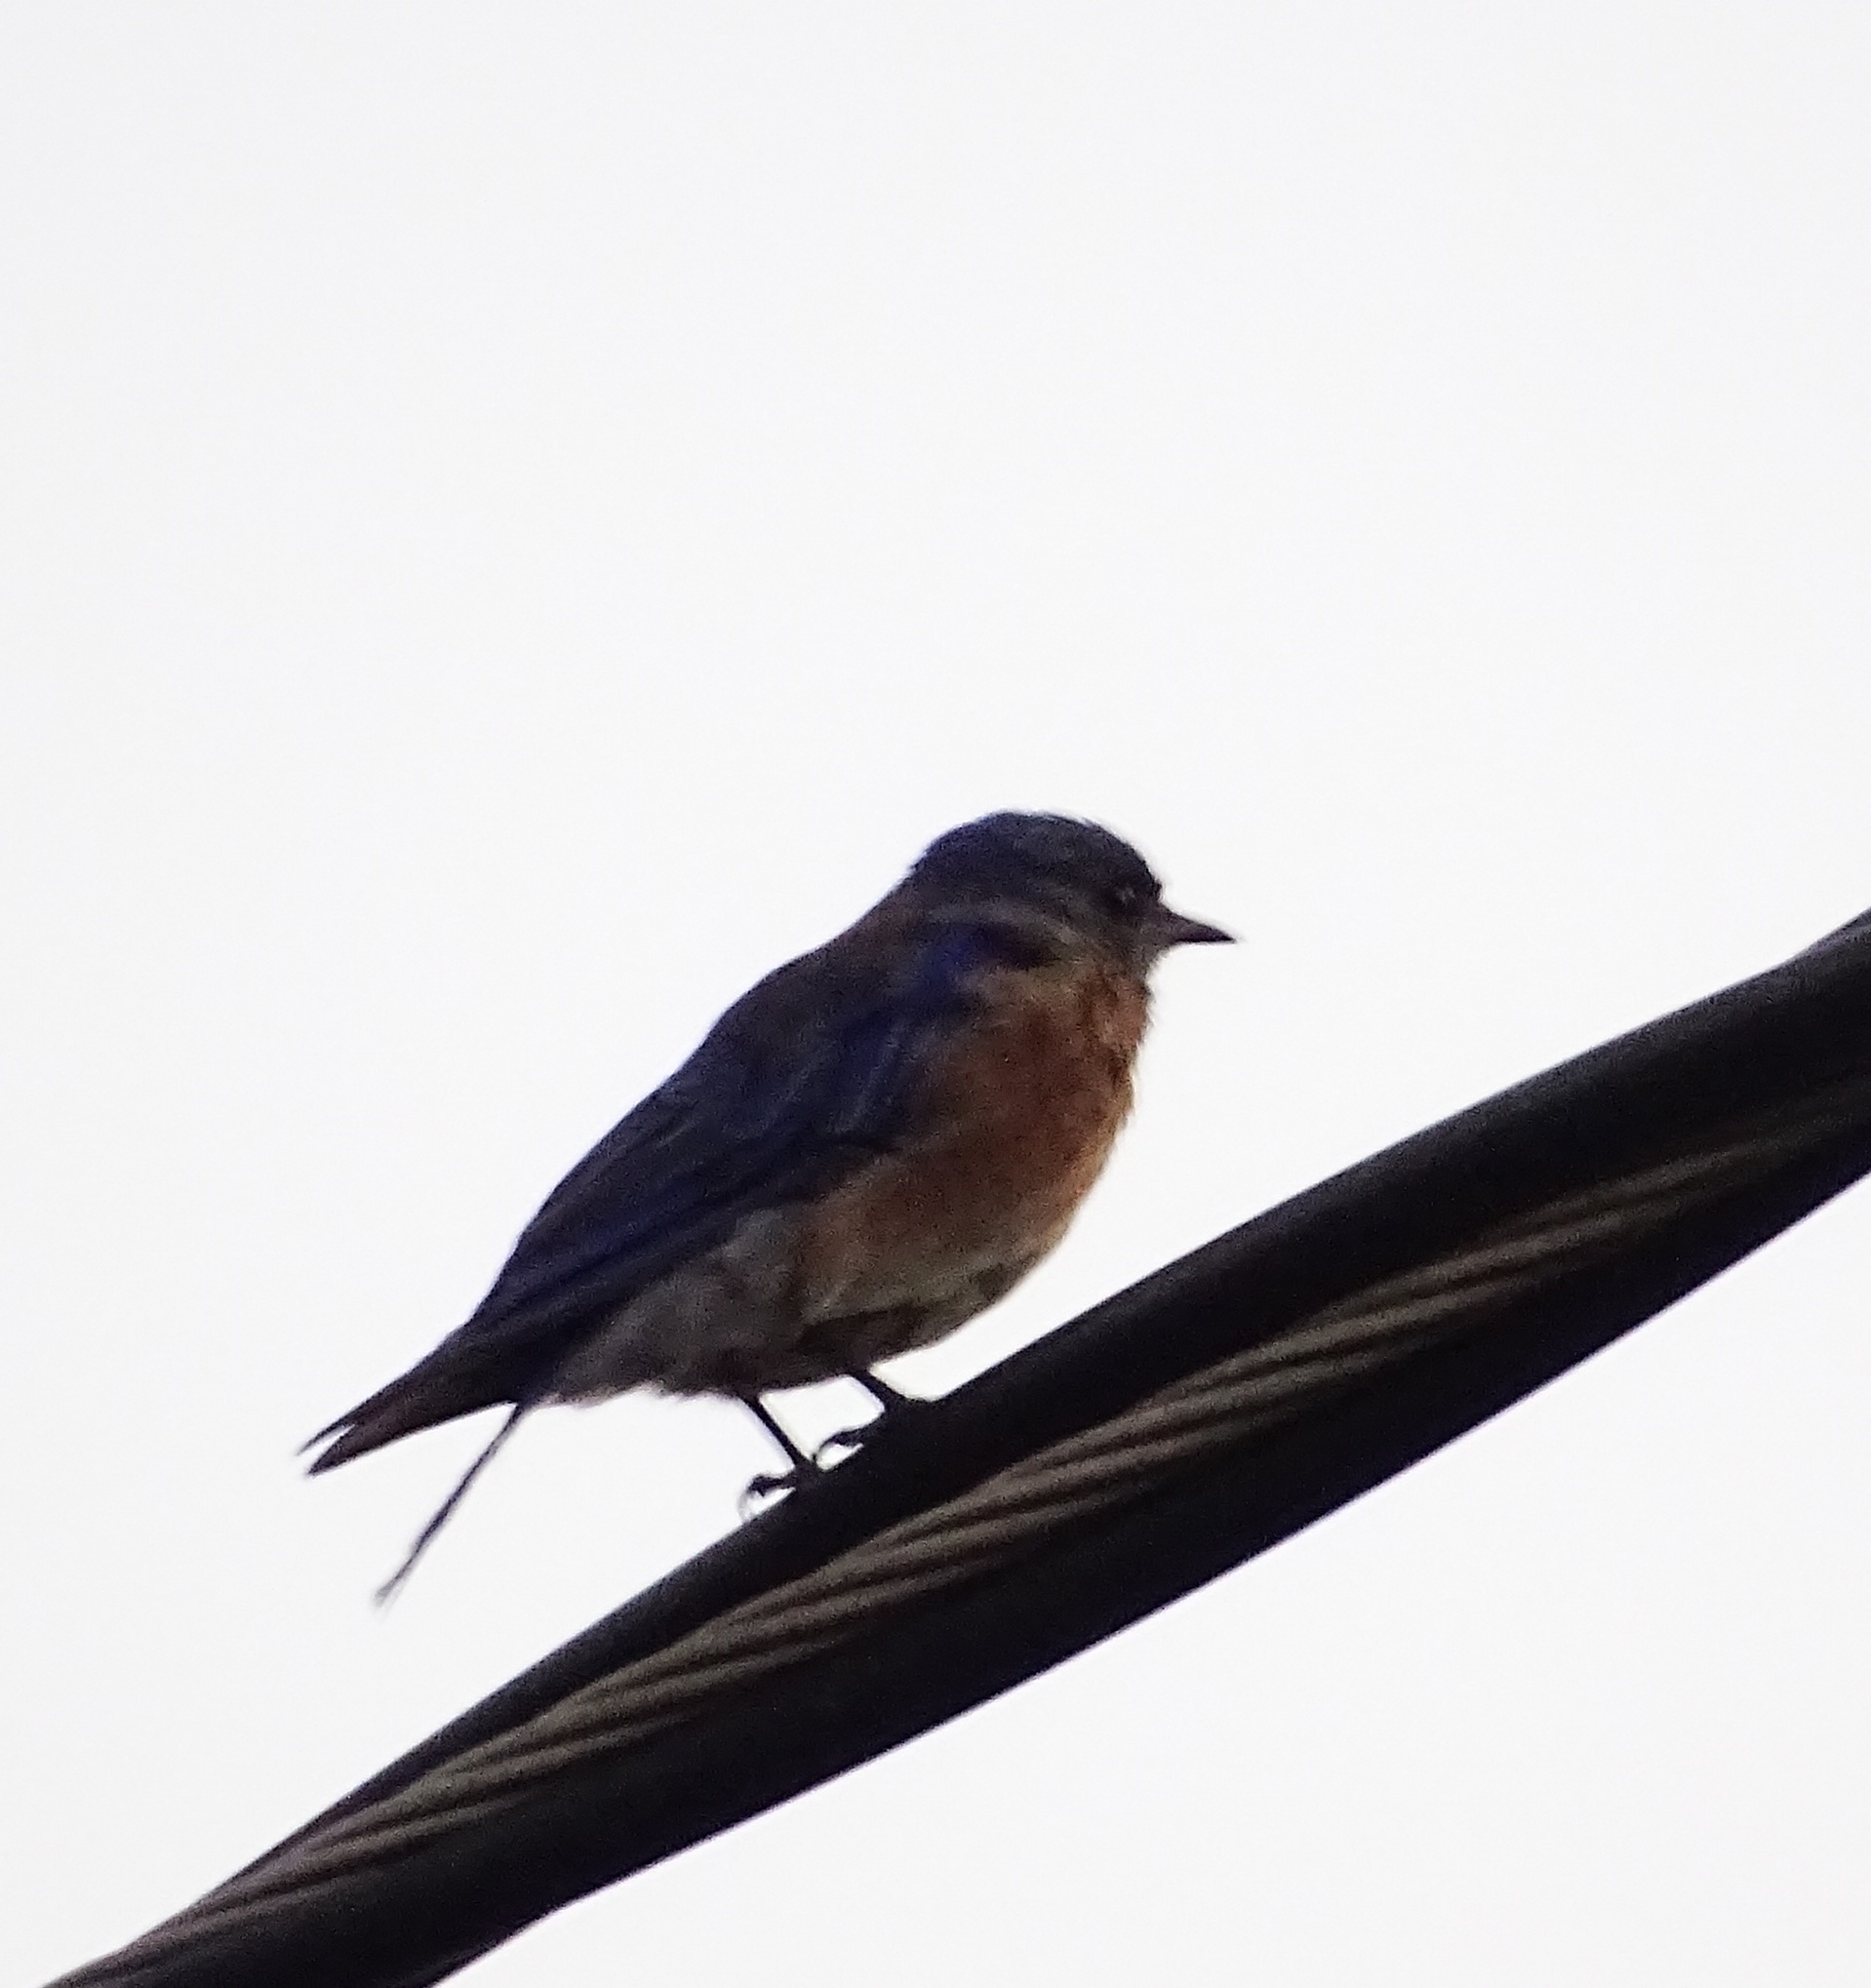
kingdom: Animalia
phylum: Chordata
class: Aves
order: Passeriformes
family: Turdidae
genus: Sialia
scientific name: Sialia mexicana
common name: Western bluebird
